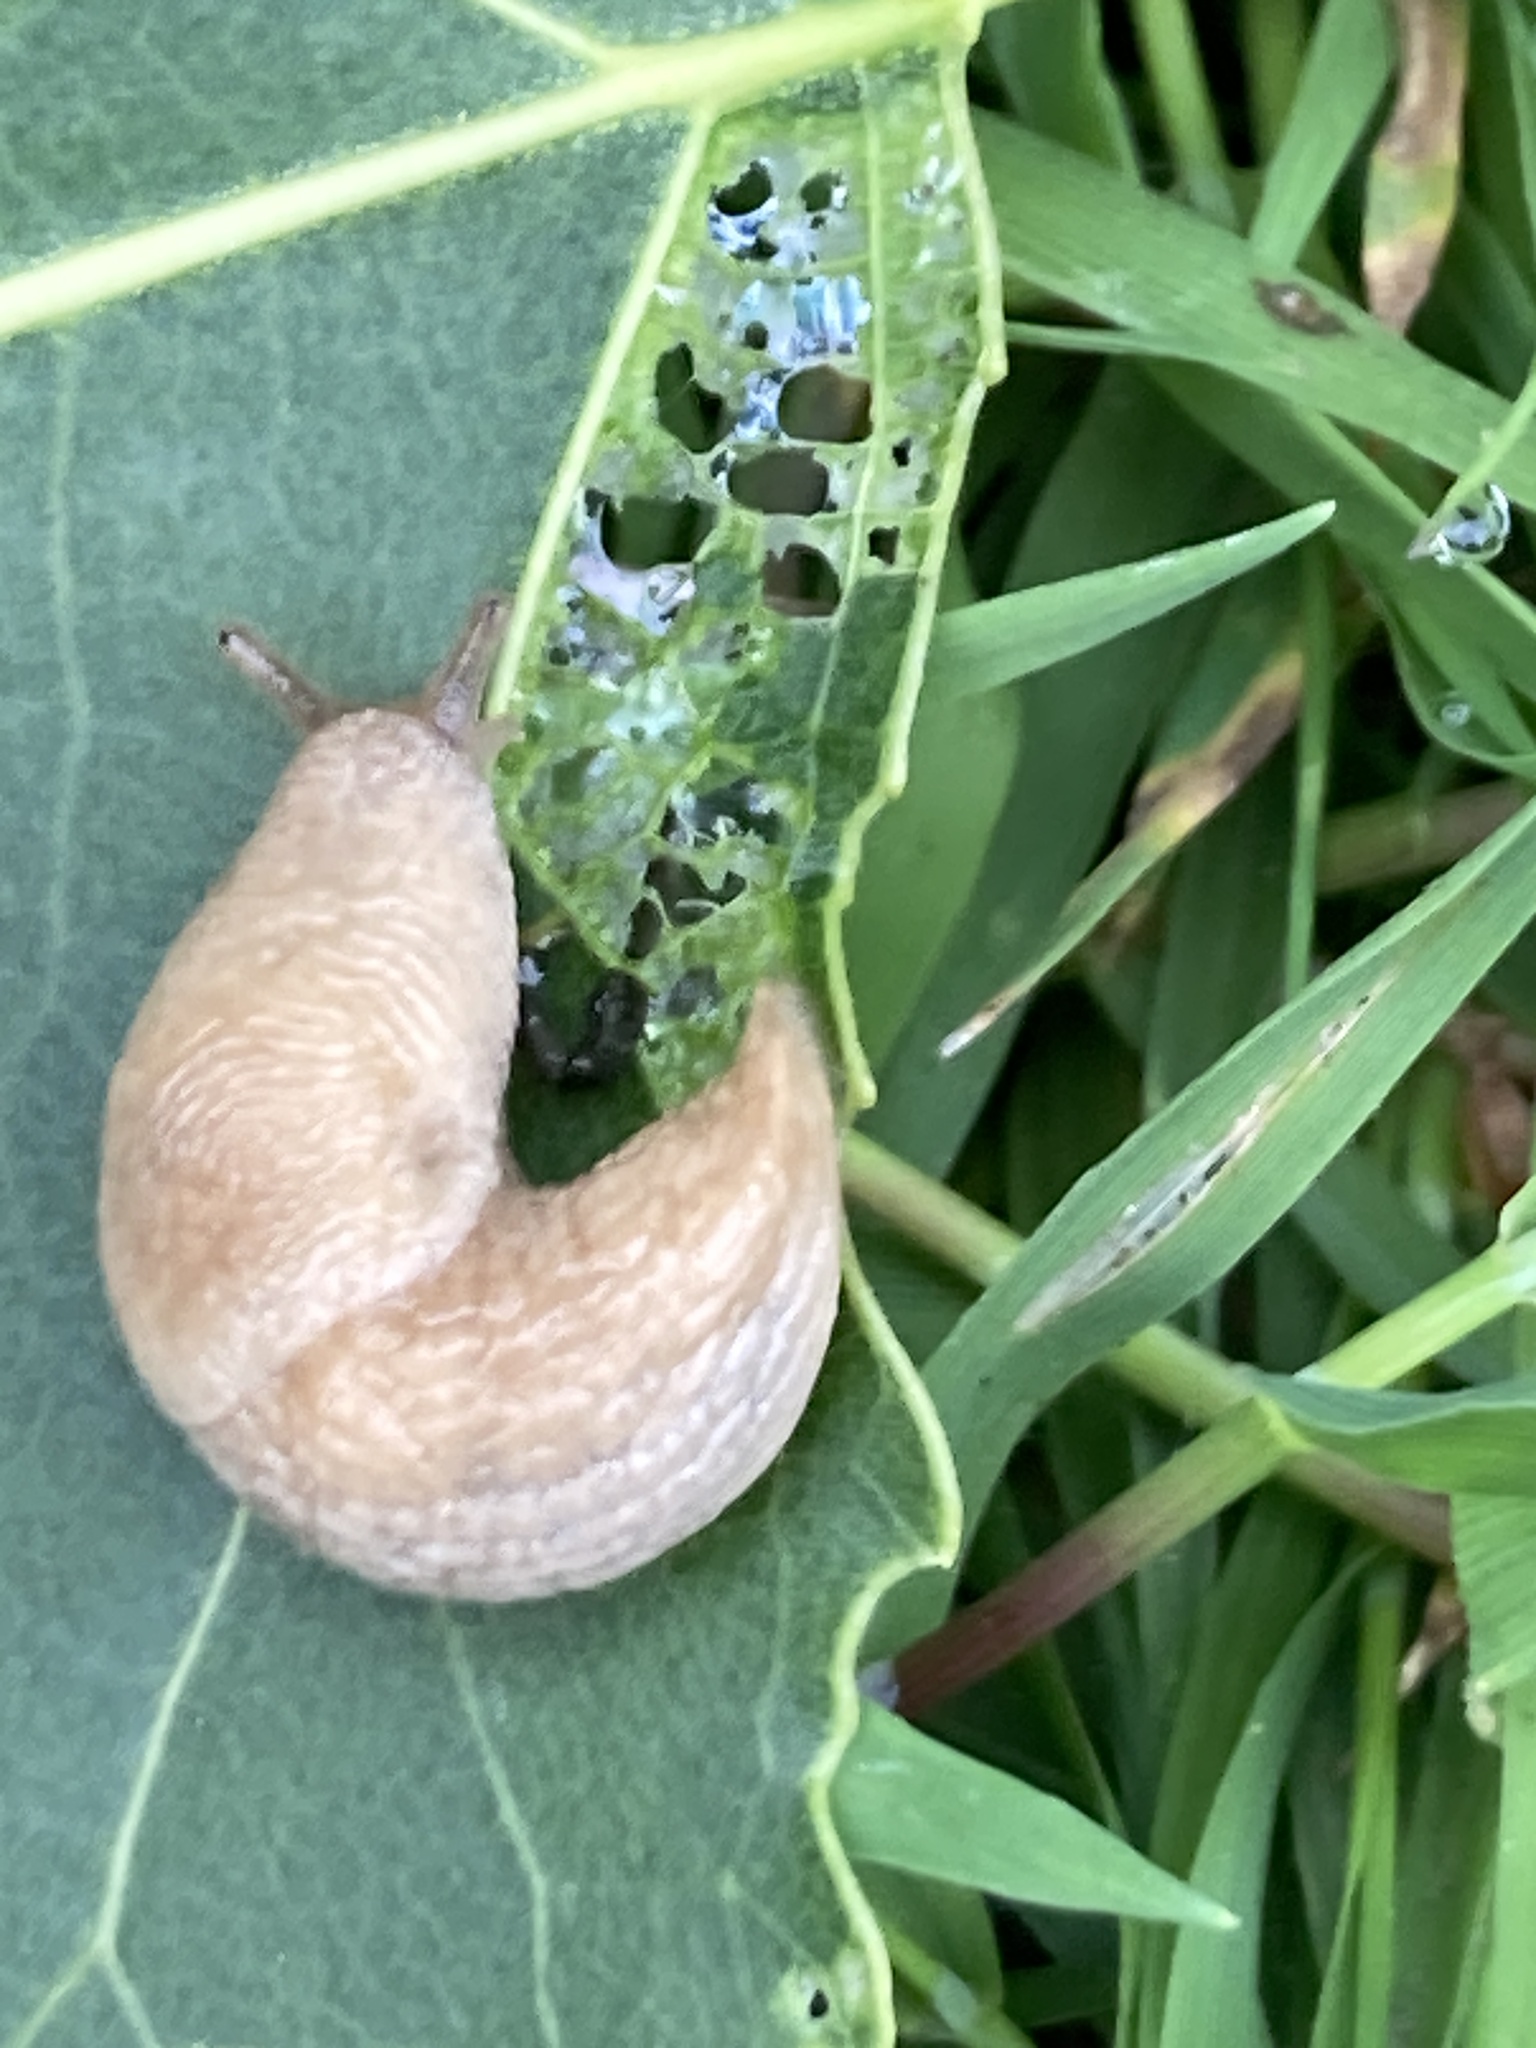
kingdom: Animalia
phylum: Mollusca
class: Gastropoda
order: Stylommatophora
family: Agriolimacidae
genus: Deroceras
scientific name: Deroceras reticulatum
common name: Gray field slug
